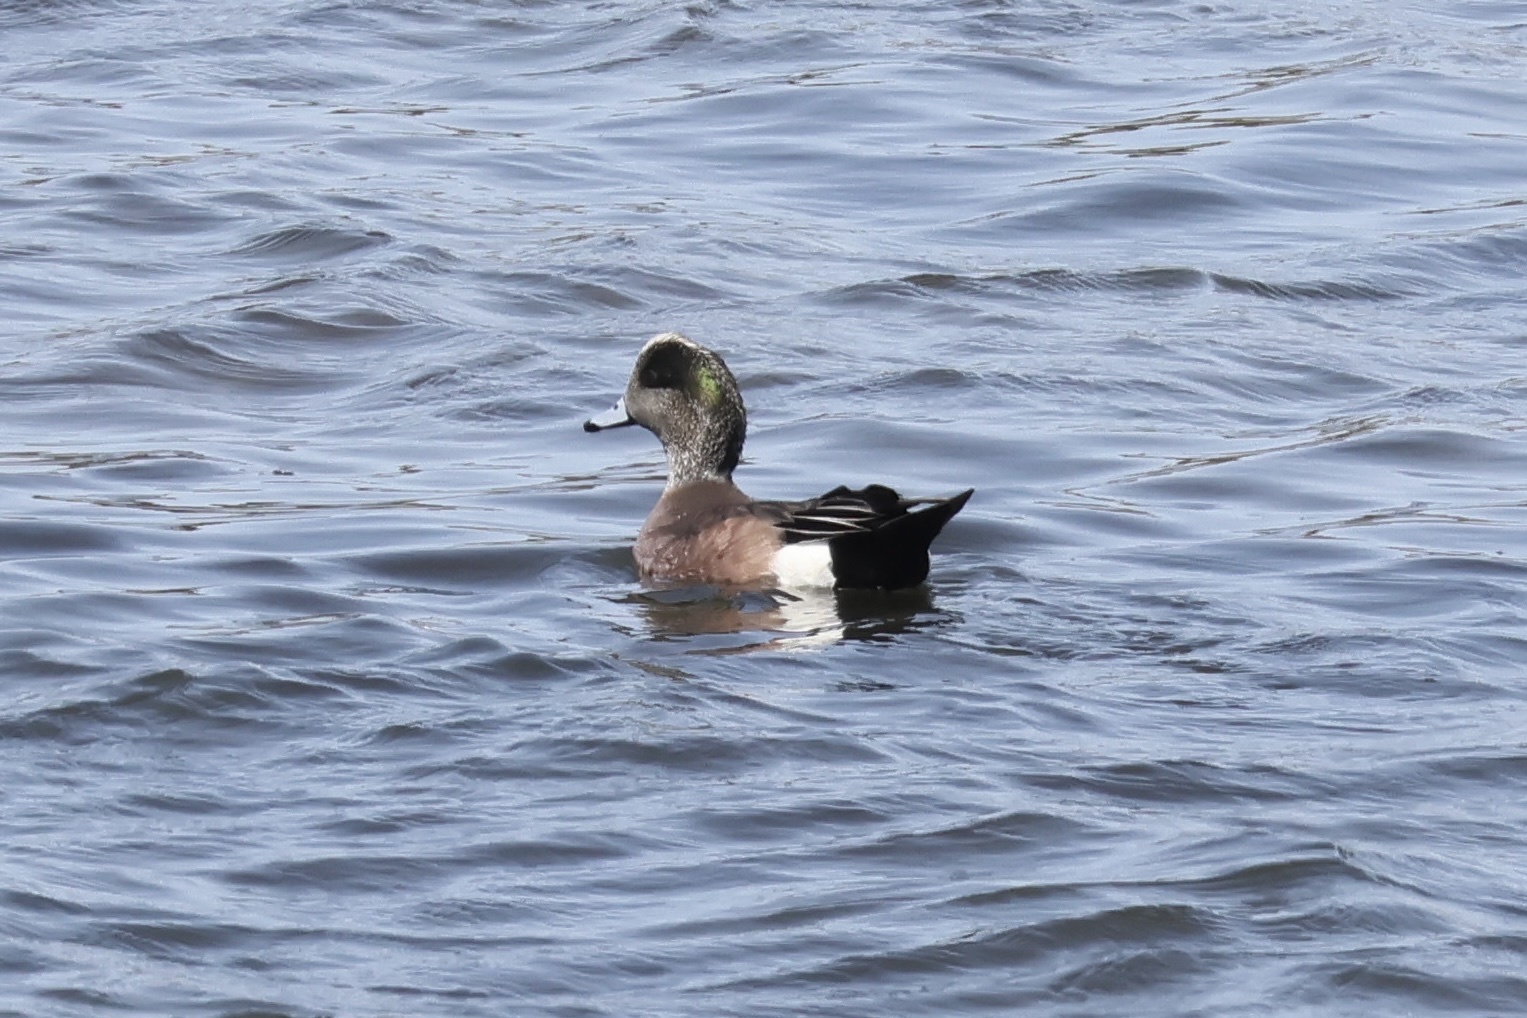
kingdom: Animalia
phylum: Chordata
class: Aves
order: Anseriformes
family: Anatidae
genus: Mareca
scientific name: Mareca americana
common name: American wigeon
